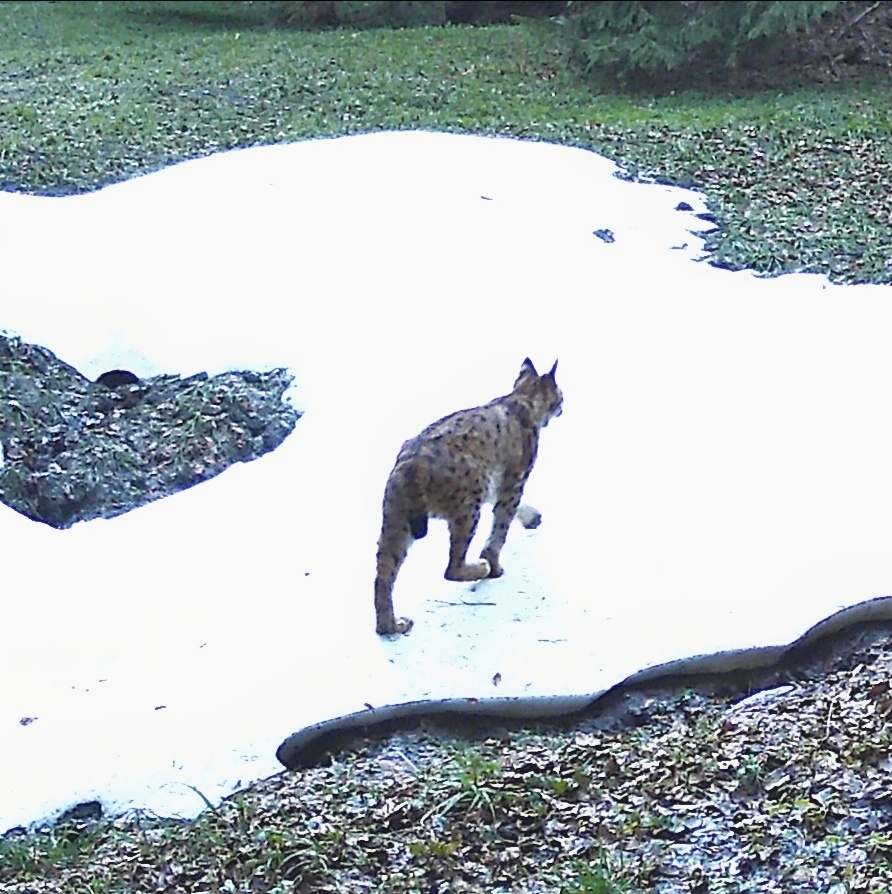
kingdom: Animalia
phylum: Chordata
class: Mammalia
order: Carnivora
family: Felidae
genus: Lynx
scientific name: Lynx lynx
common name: Eurasian lynx
